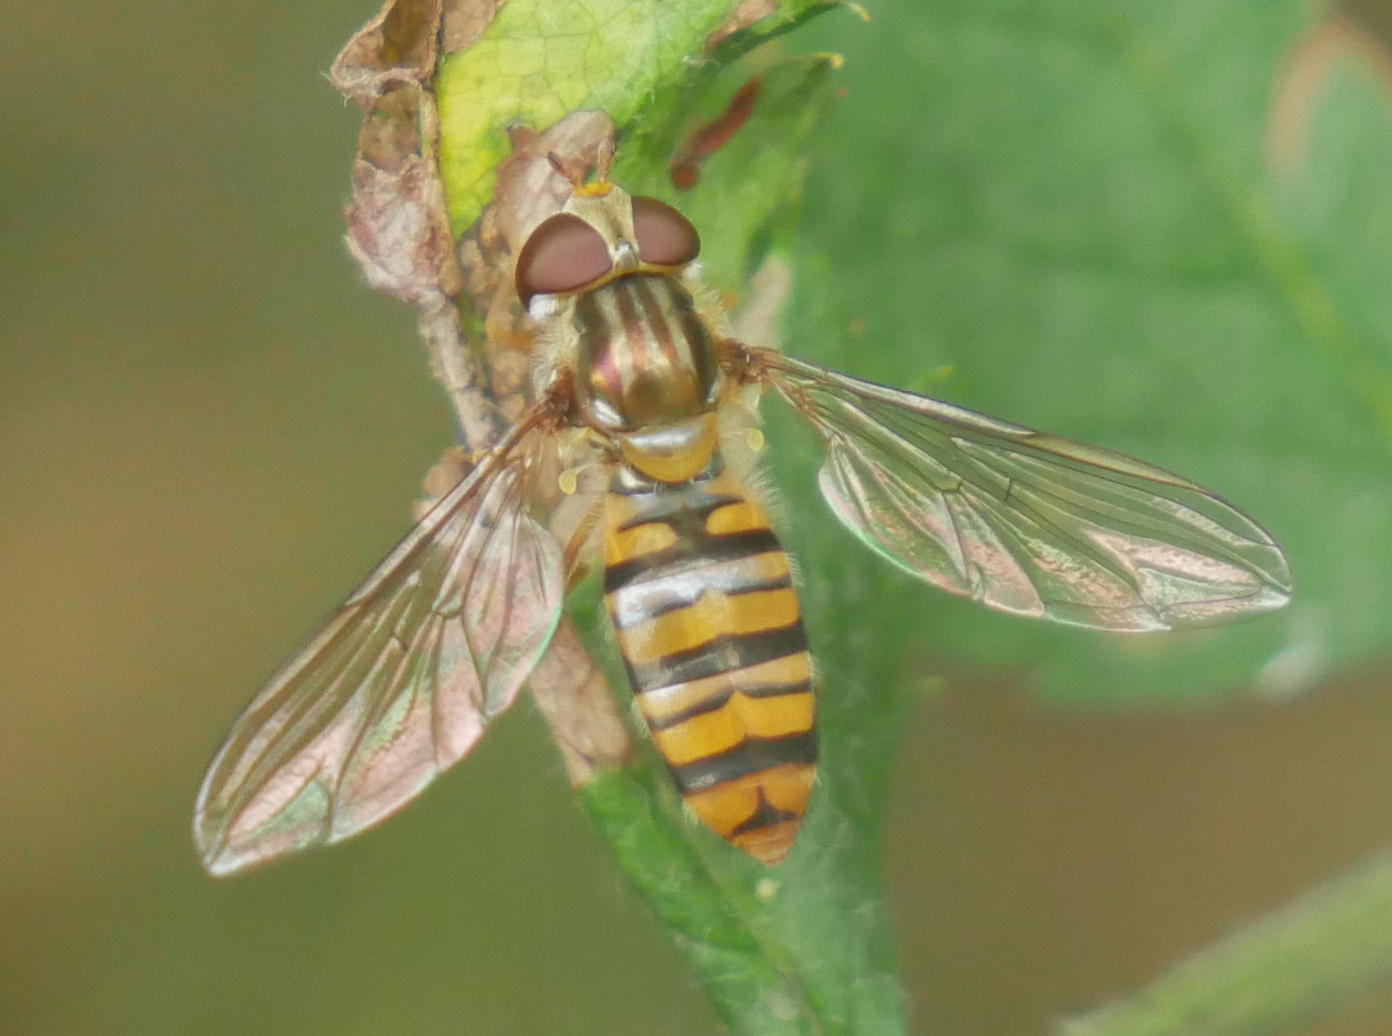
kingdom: Animalia
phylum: Arthropoda
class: Insecta
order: Diptera
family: Syrphidae
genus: Episyrphus
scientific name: Episyrphus balteatus
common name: Marmalade hoverfly
